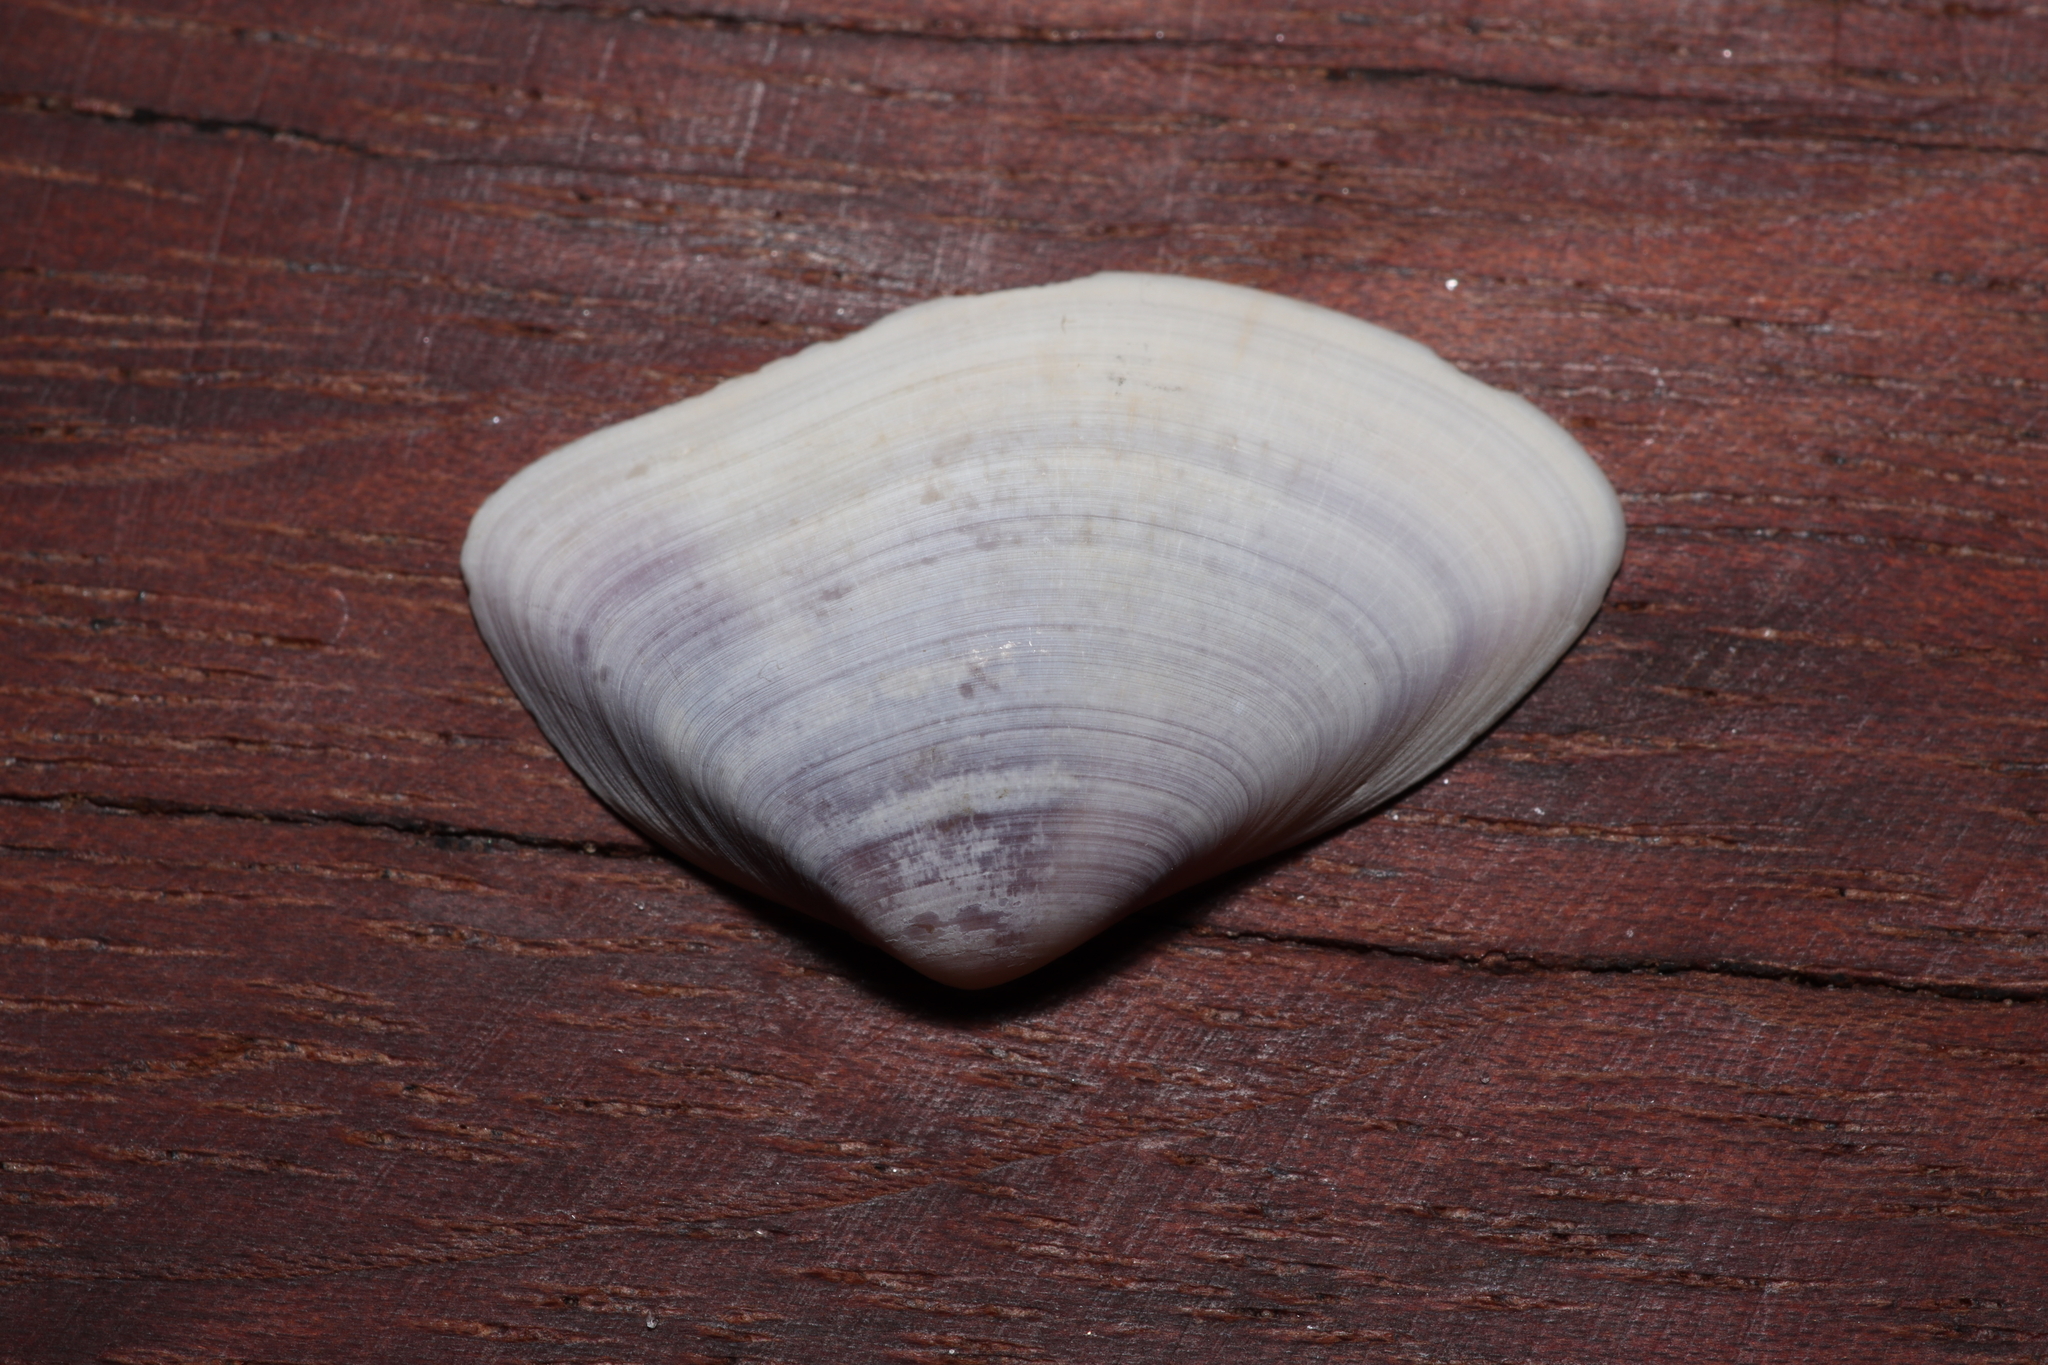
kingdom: Animalia
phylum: Mollusca
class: Bivalvia
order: Cardiida
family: Donacidae
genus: Iphigenia
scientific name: Iphigenia brasiliensis
